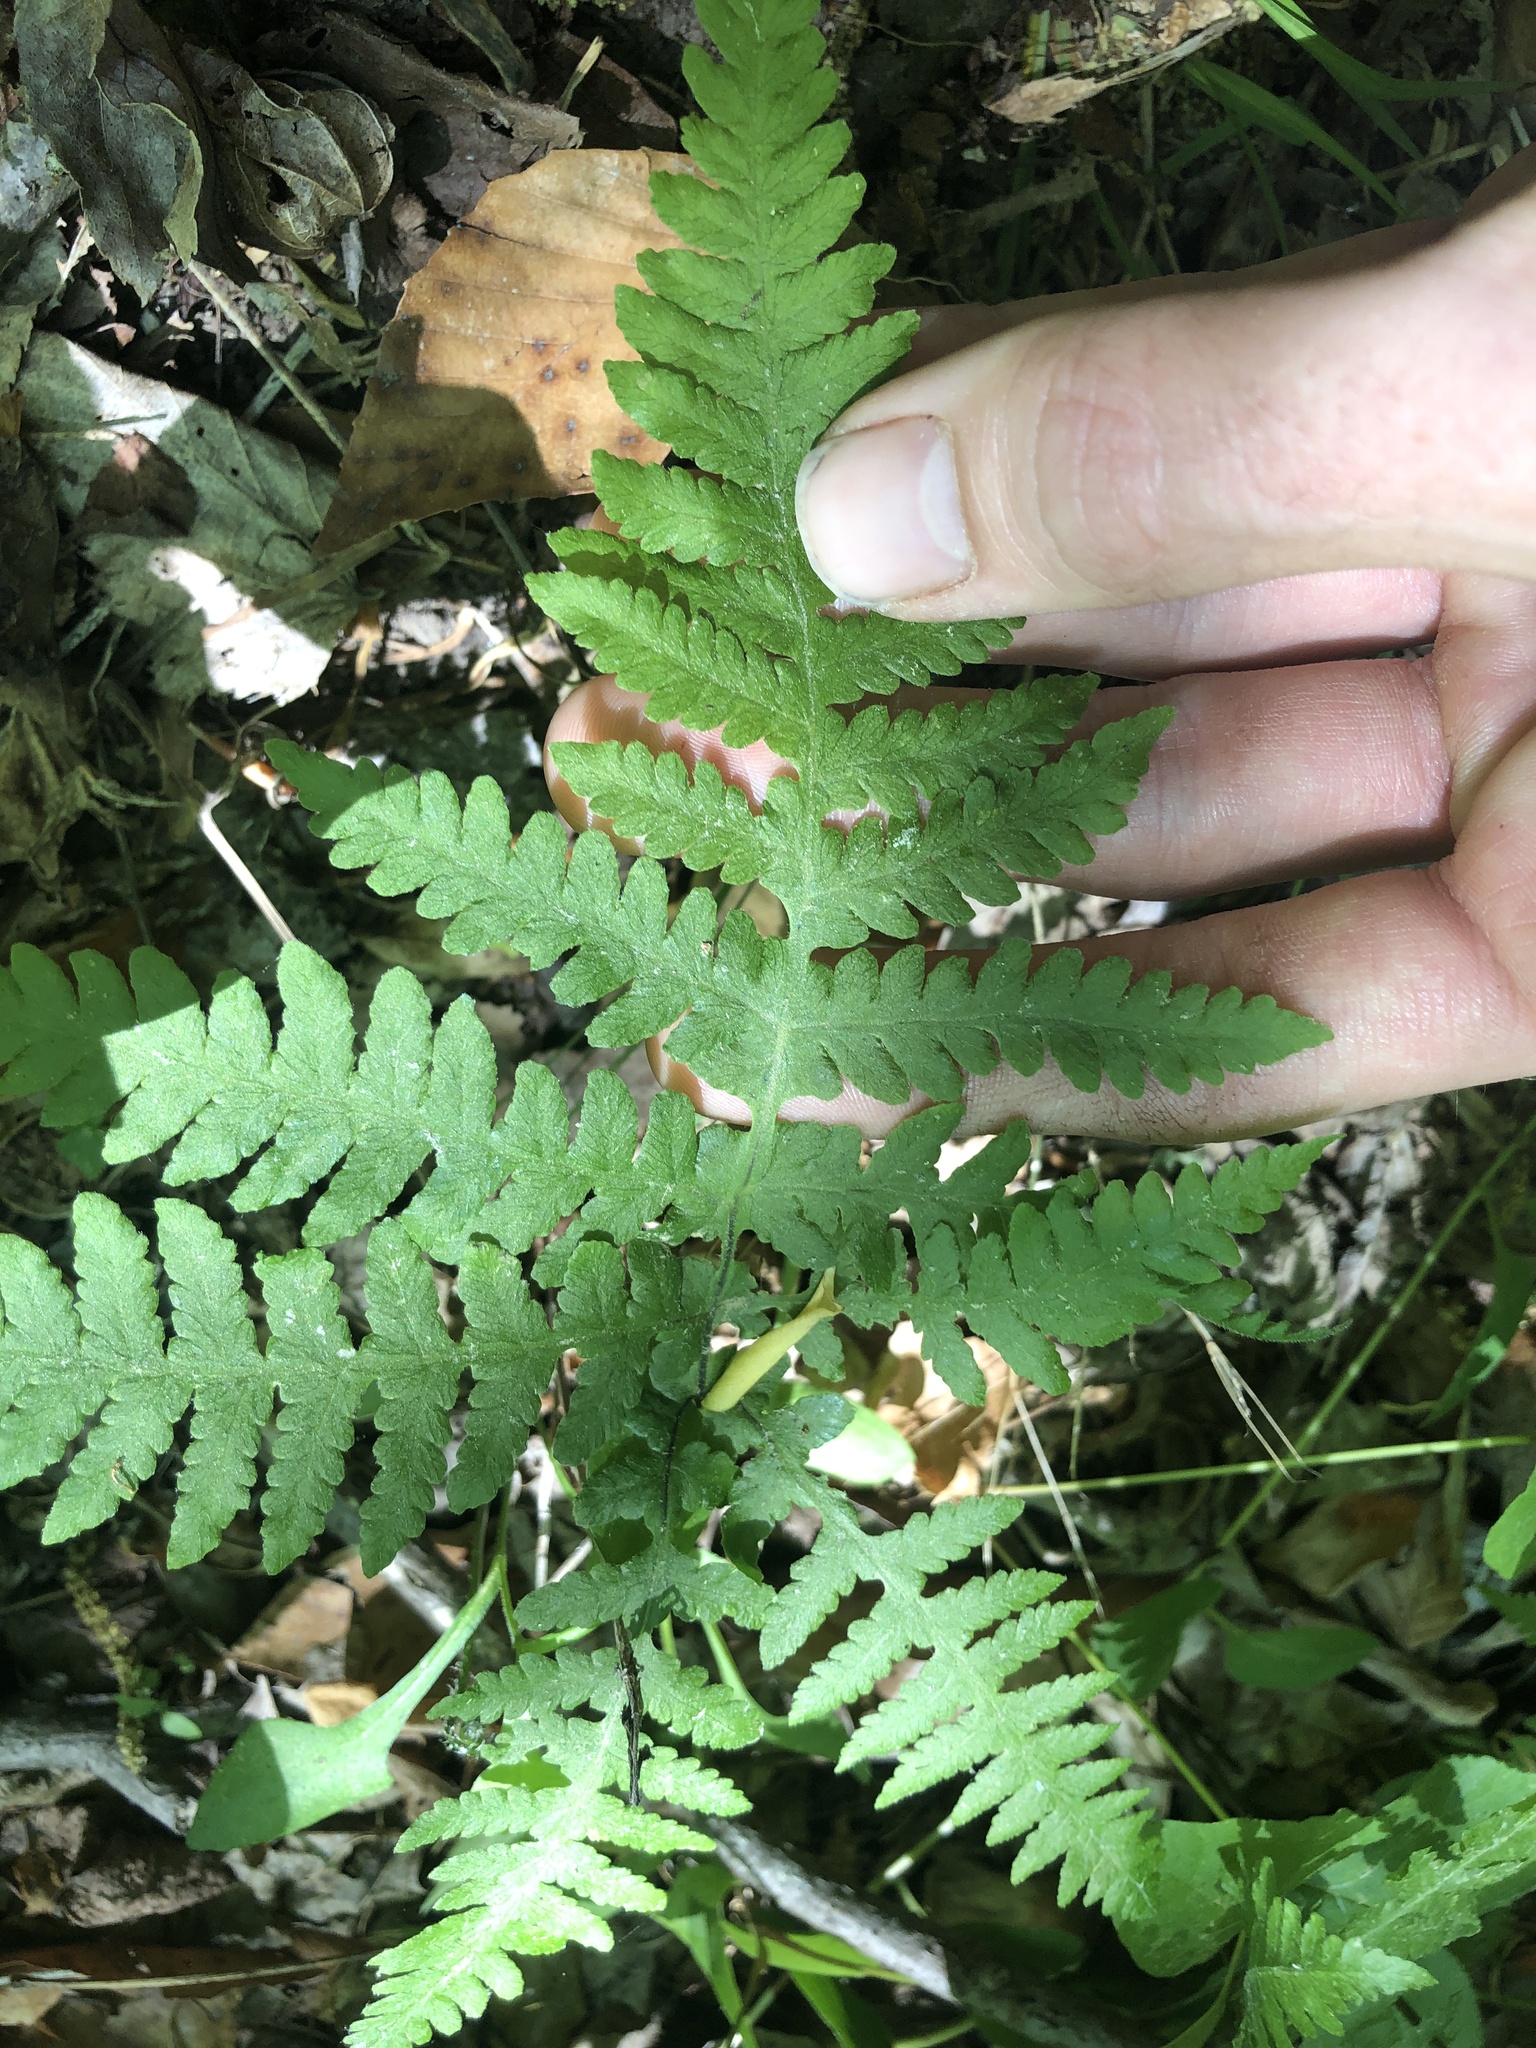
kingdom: Plantae
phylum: Tracheophyta
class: Polypodiopsida
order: Polypodiales
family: Thelypteridaceae
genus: Phegopteris
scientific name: Phegopteris hexagonoptera
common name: Broad beech fern
